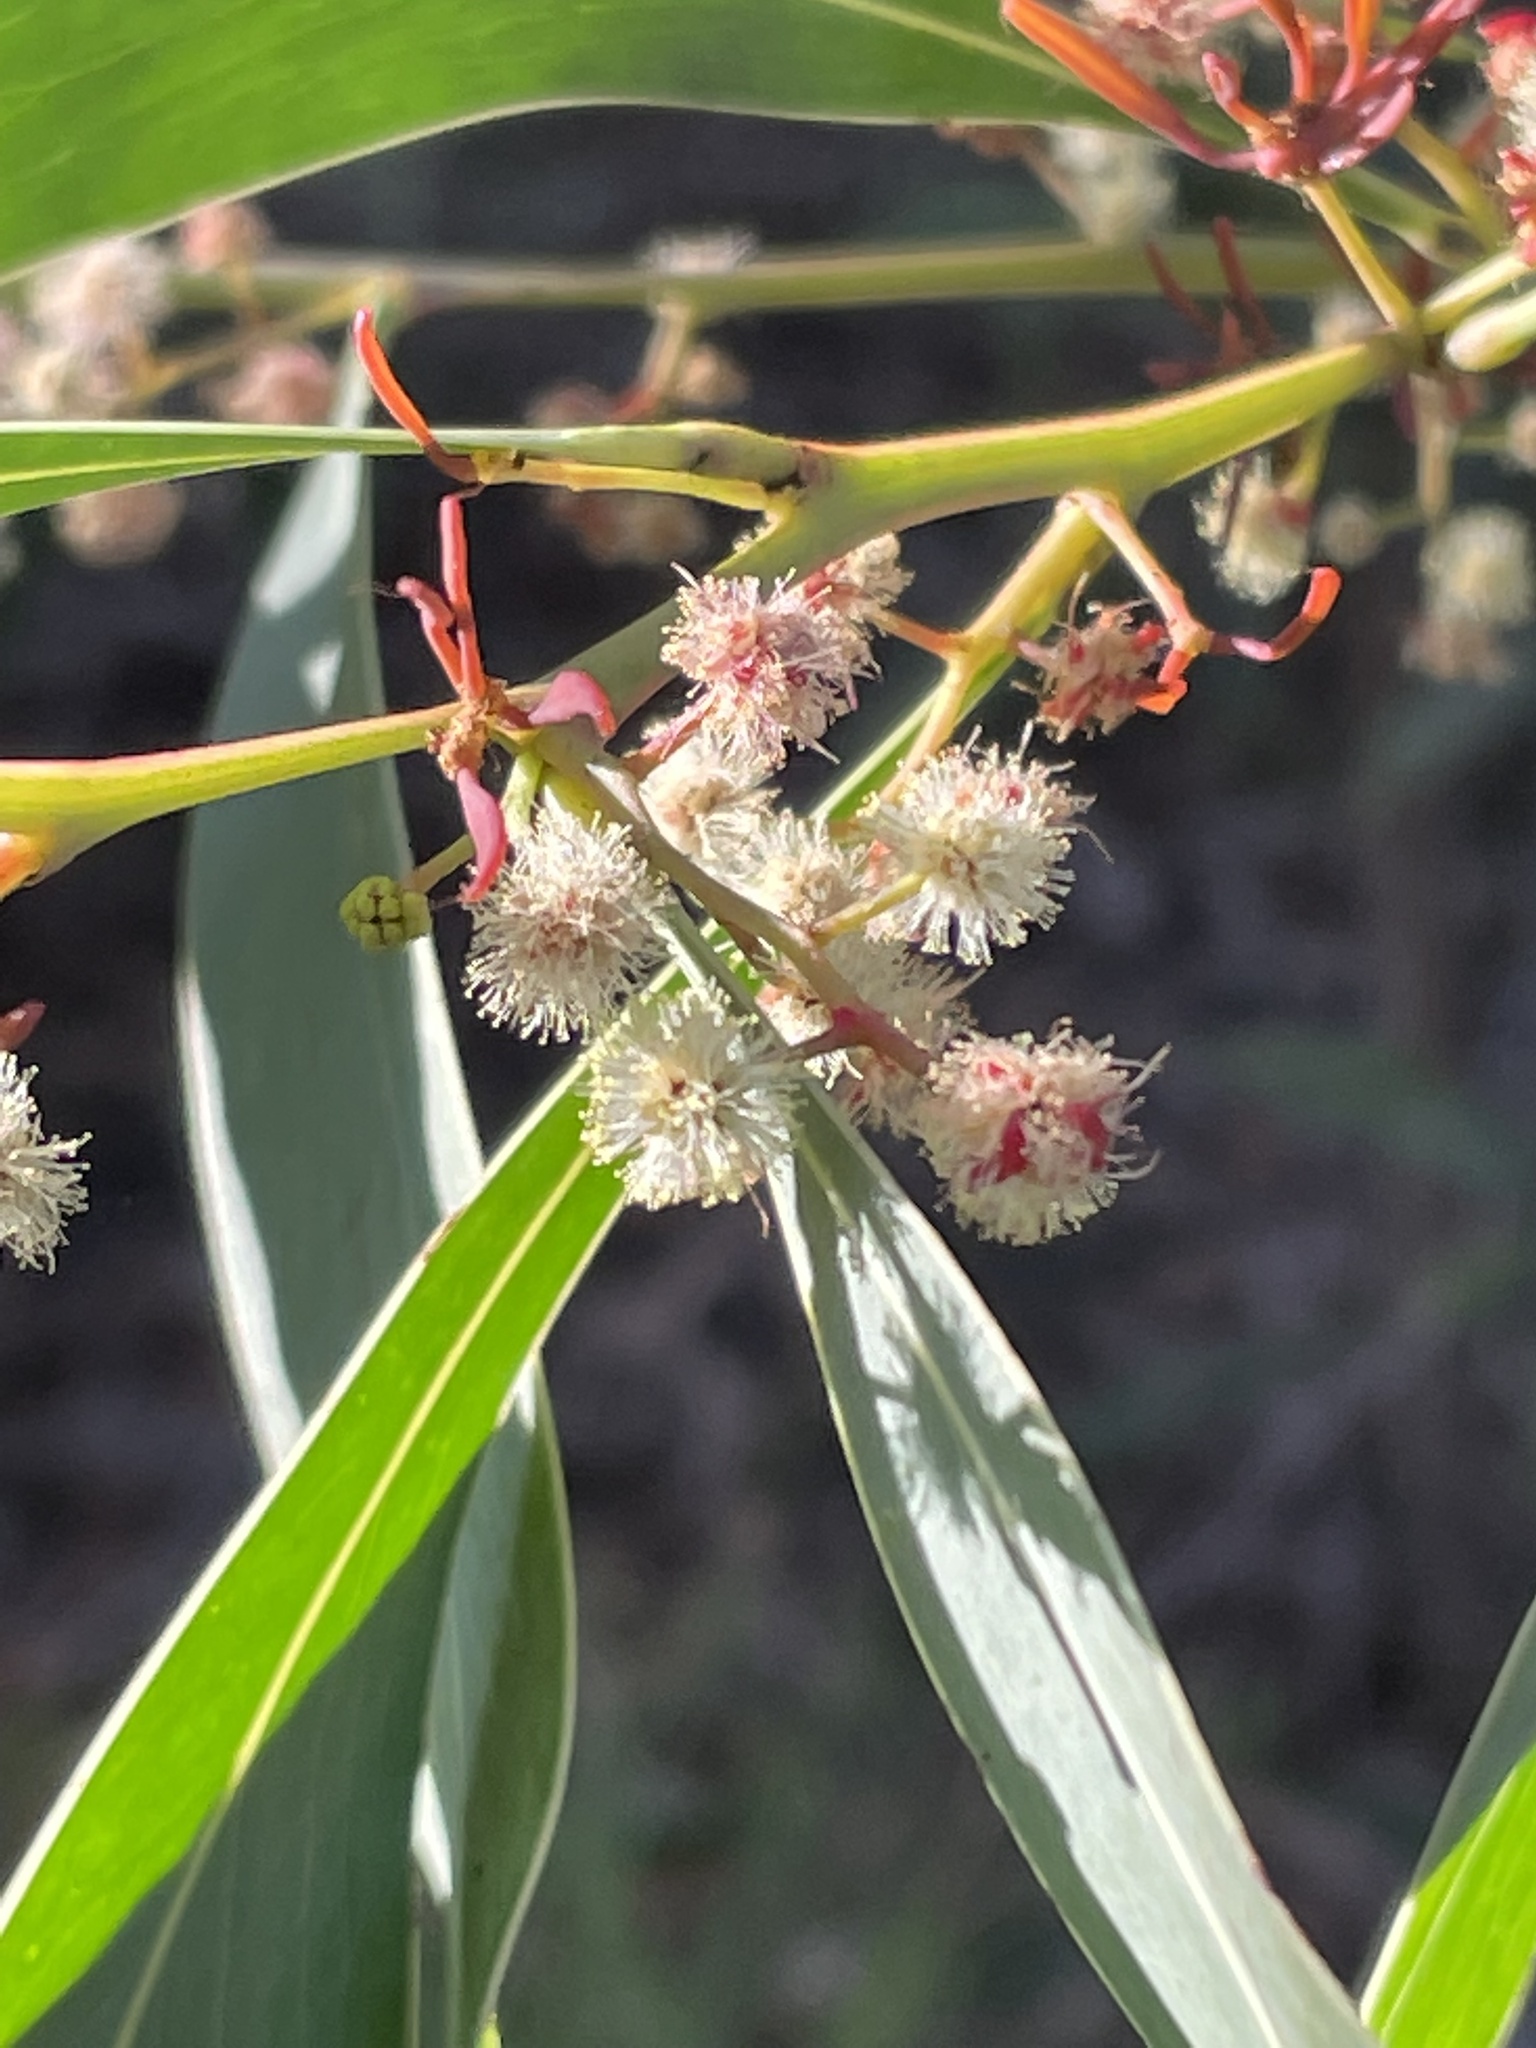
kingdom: Plantae
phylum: Tracheophyta
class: Magnoliopsida
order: Fabales
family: Fabaceae
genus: Acacia
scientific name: Acacia falcata
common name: Burra acacia
